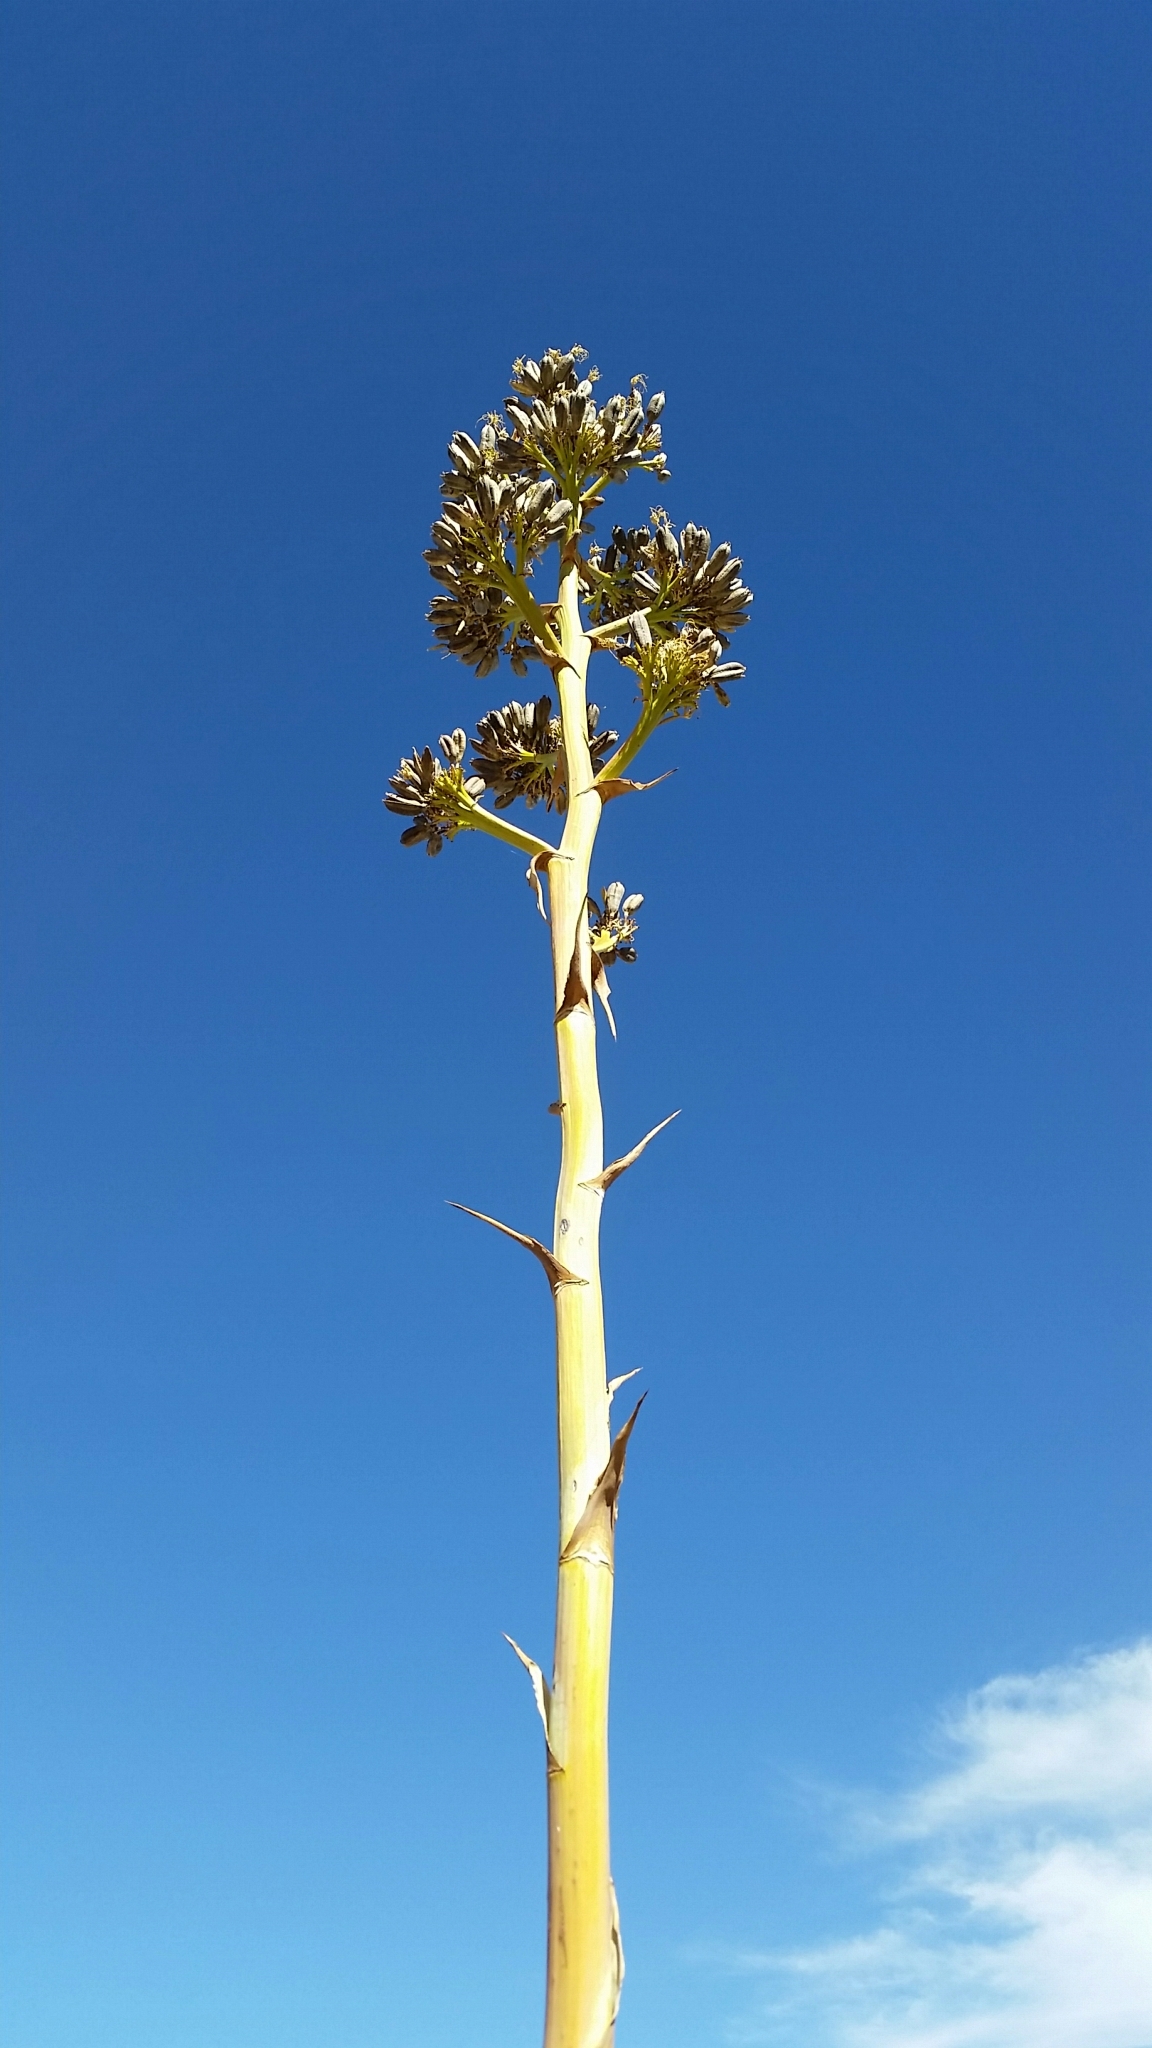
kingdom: Plantae
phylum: Tracheophyta
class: Liliopsida
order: Asparagales
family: Asparagaceae
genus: Agave
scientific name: Agave deserti
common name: Desert agave
